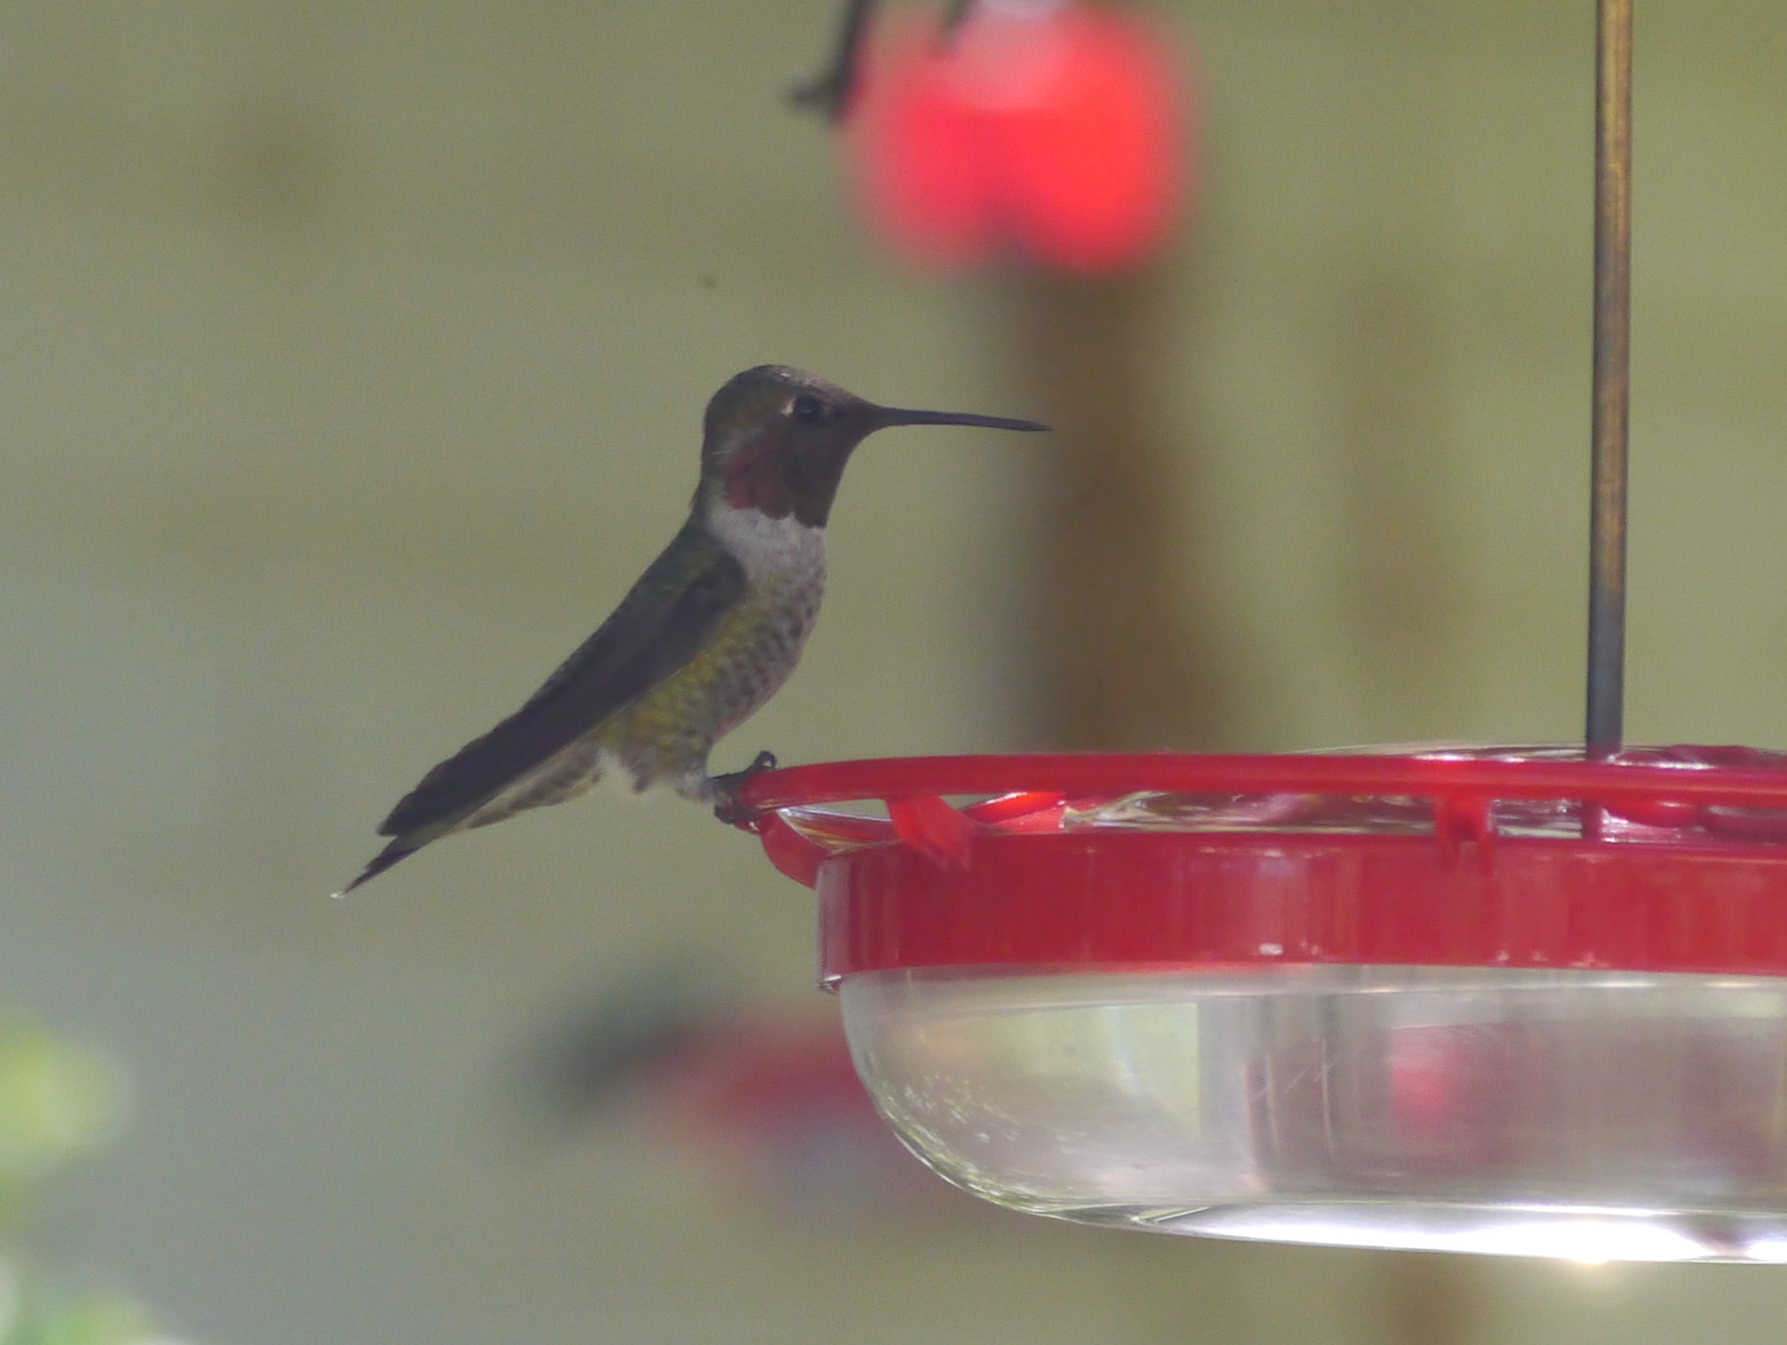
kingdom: Animalia
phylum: Chordata
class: Aves
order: Apodiformes
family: Trochilidae
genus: Calypte
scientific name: Calypte anna
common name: Anna's hummingbird
